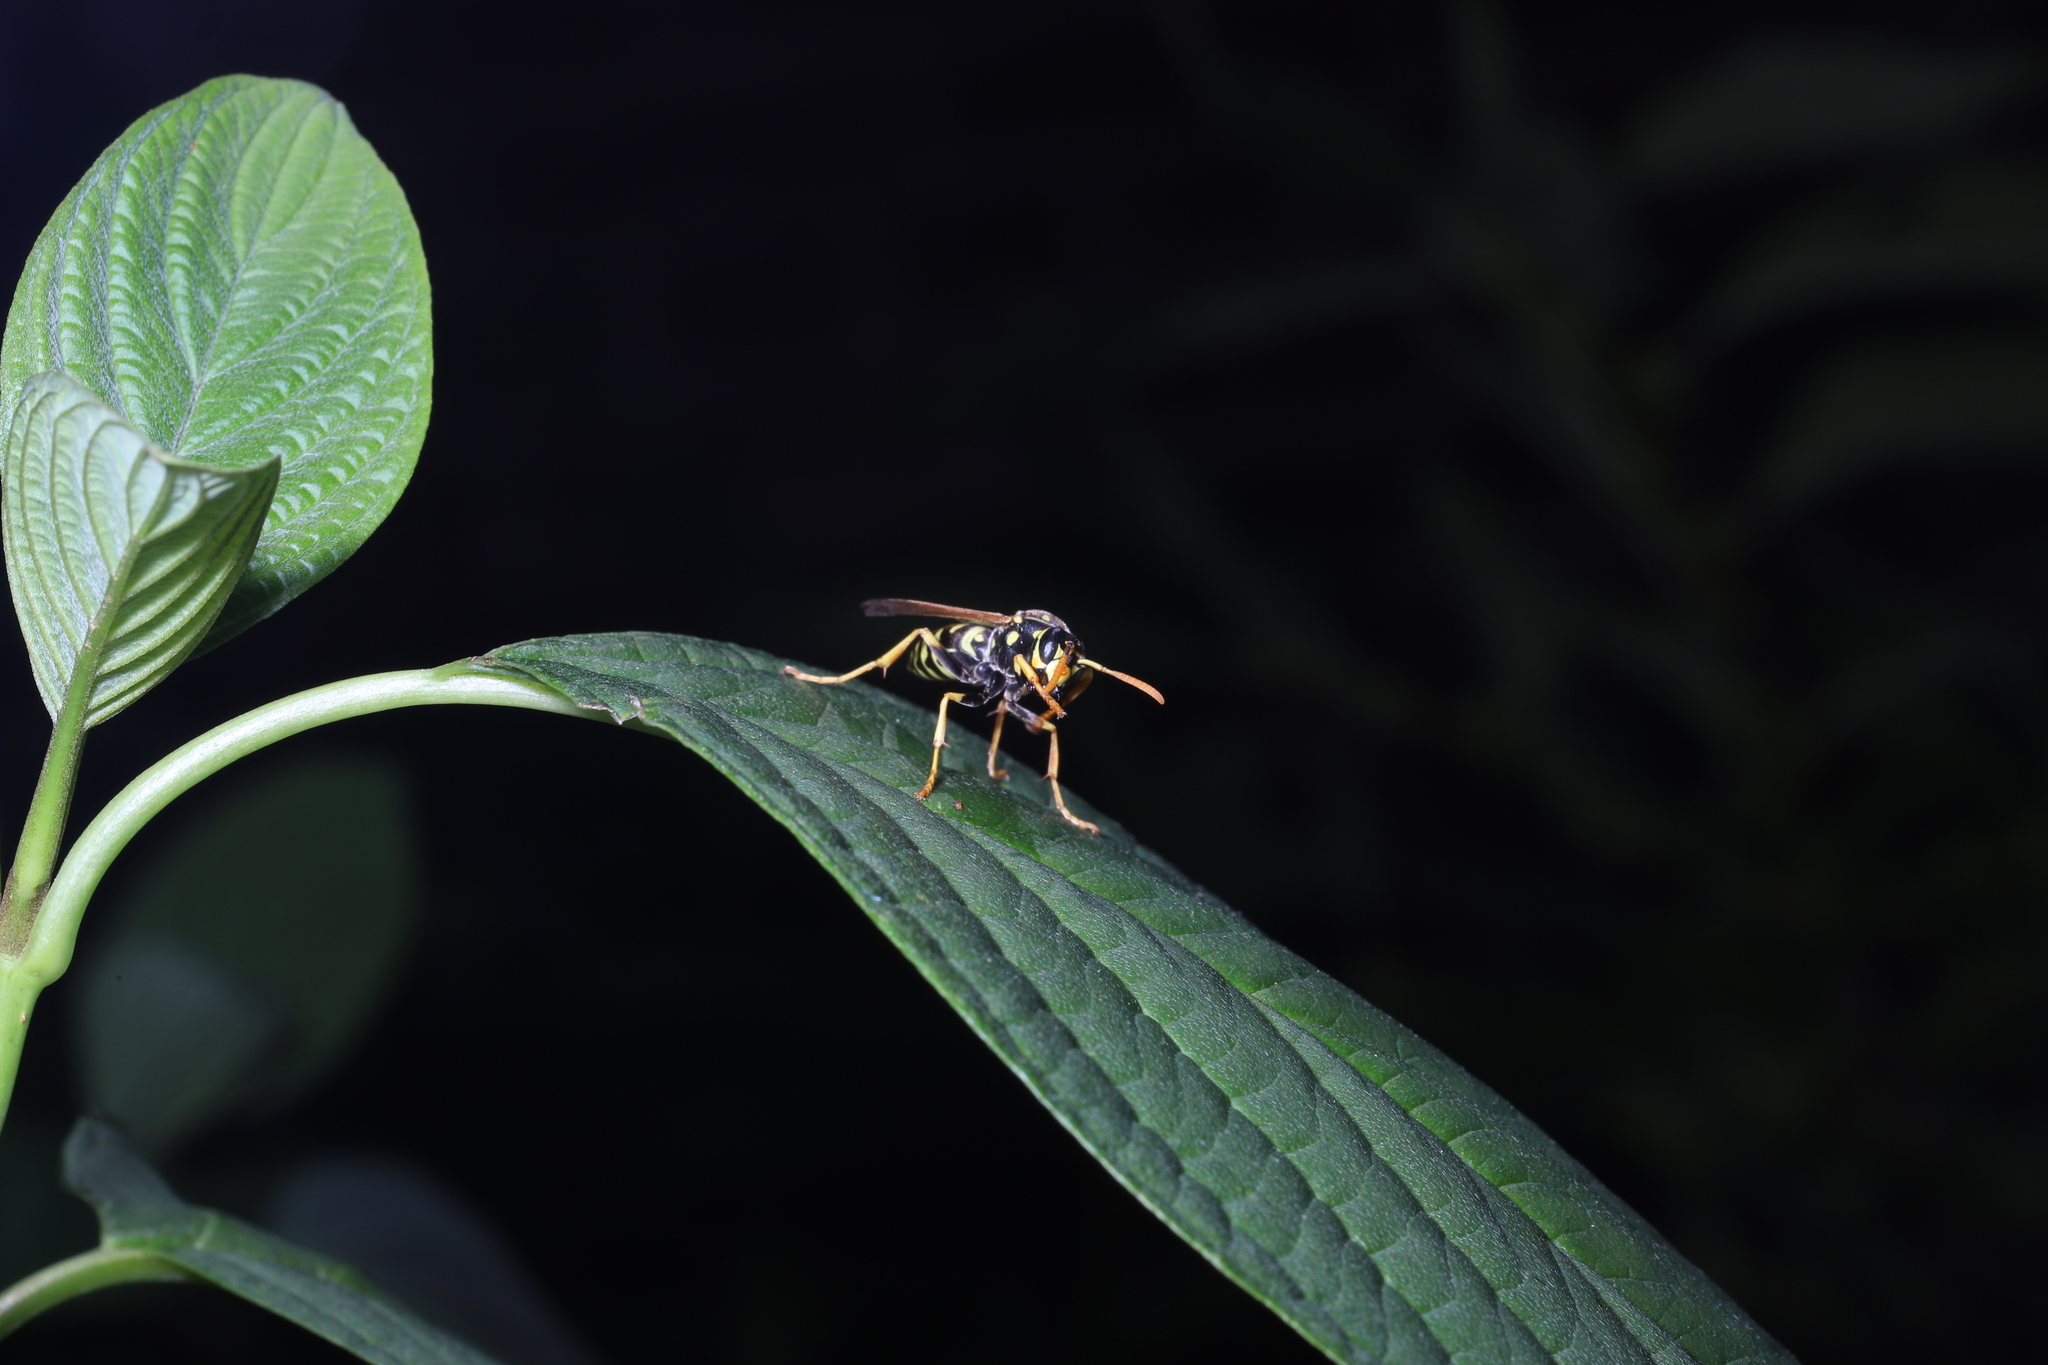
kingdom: Animalia
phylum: Arthropoda
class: Insecta
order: Hymenoptera
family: Eumenidae
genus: Polistes
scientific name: Polistes dominula
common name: Paper wasp
